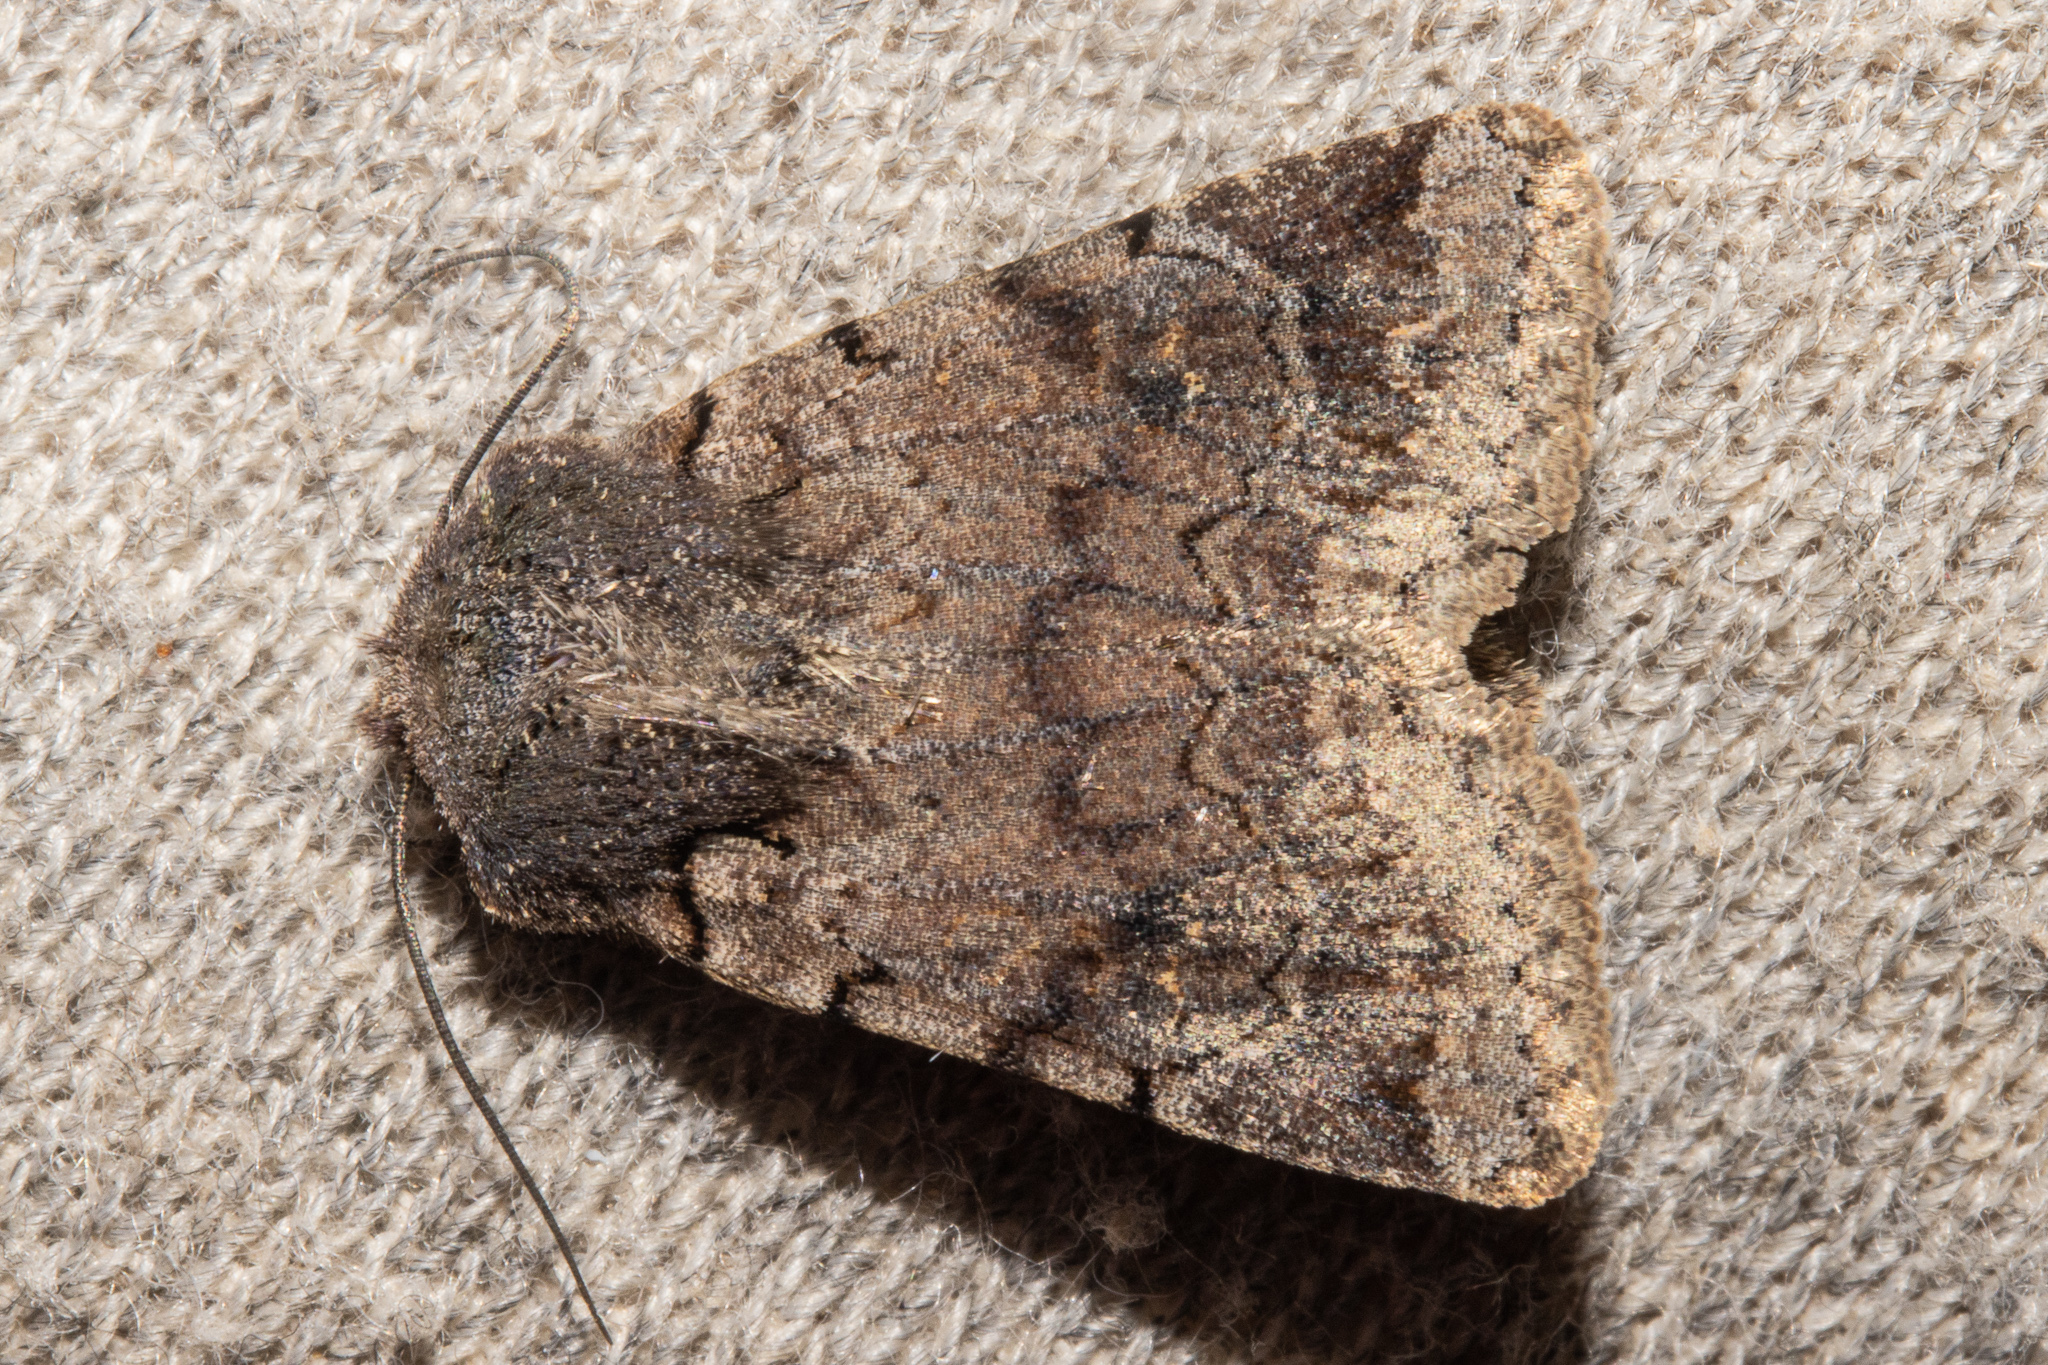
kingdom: Animalia
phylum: Arthropoda
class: Insecta
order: Lepidoptera
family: Noctuidae
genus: Austramathes
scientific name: Austramathes
